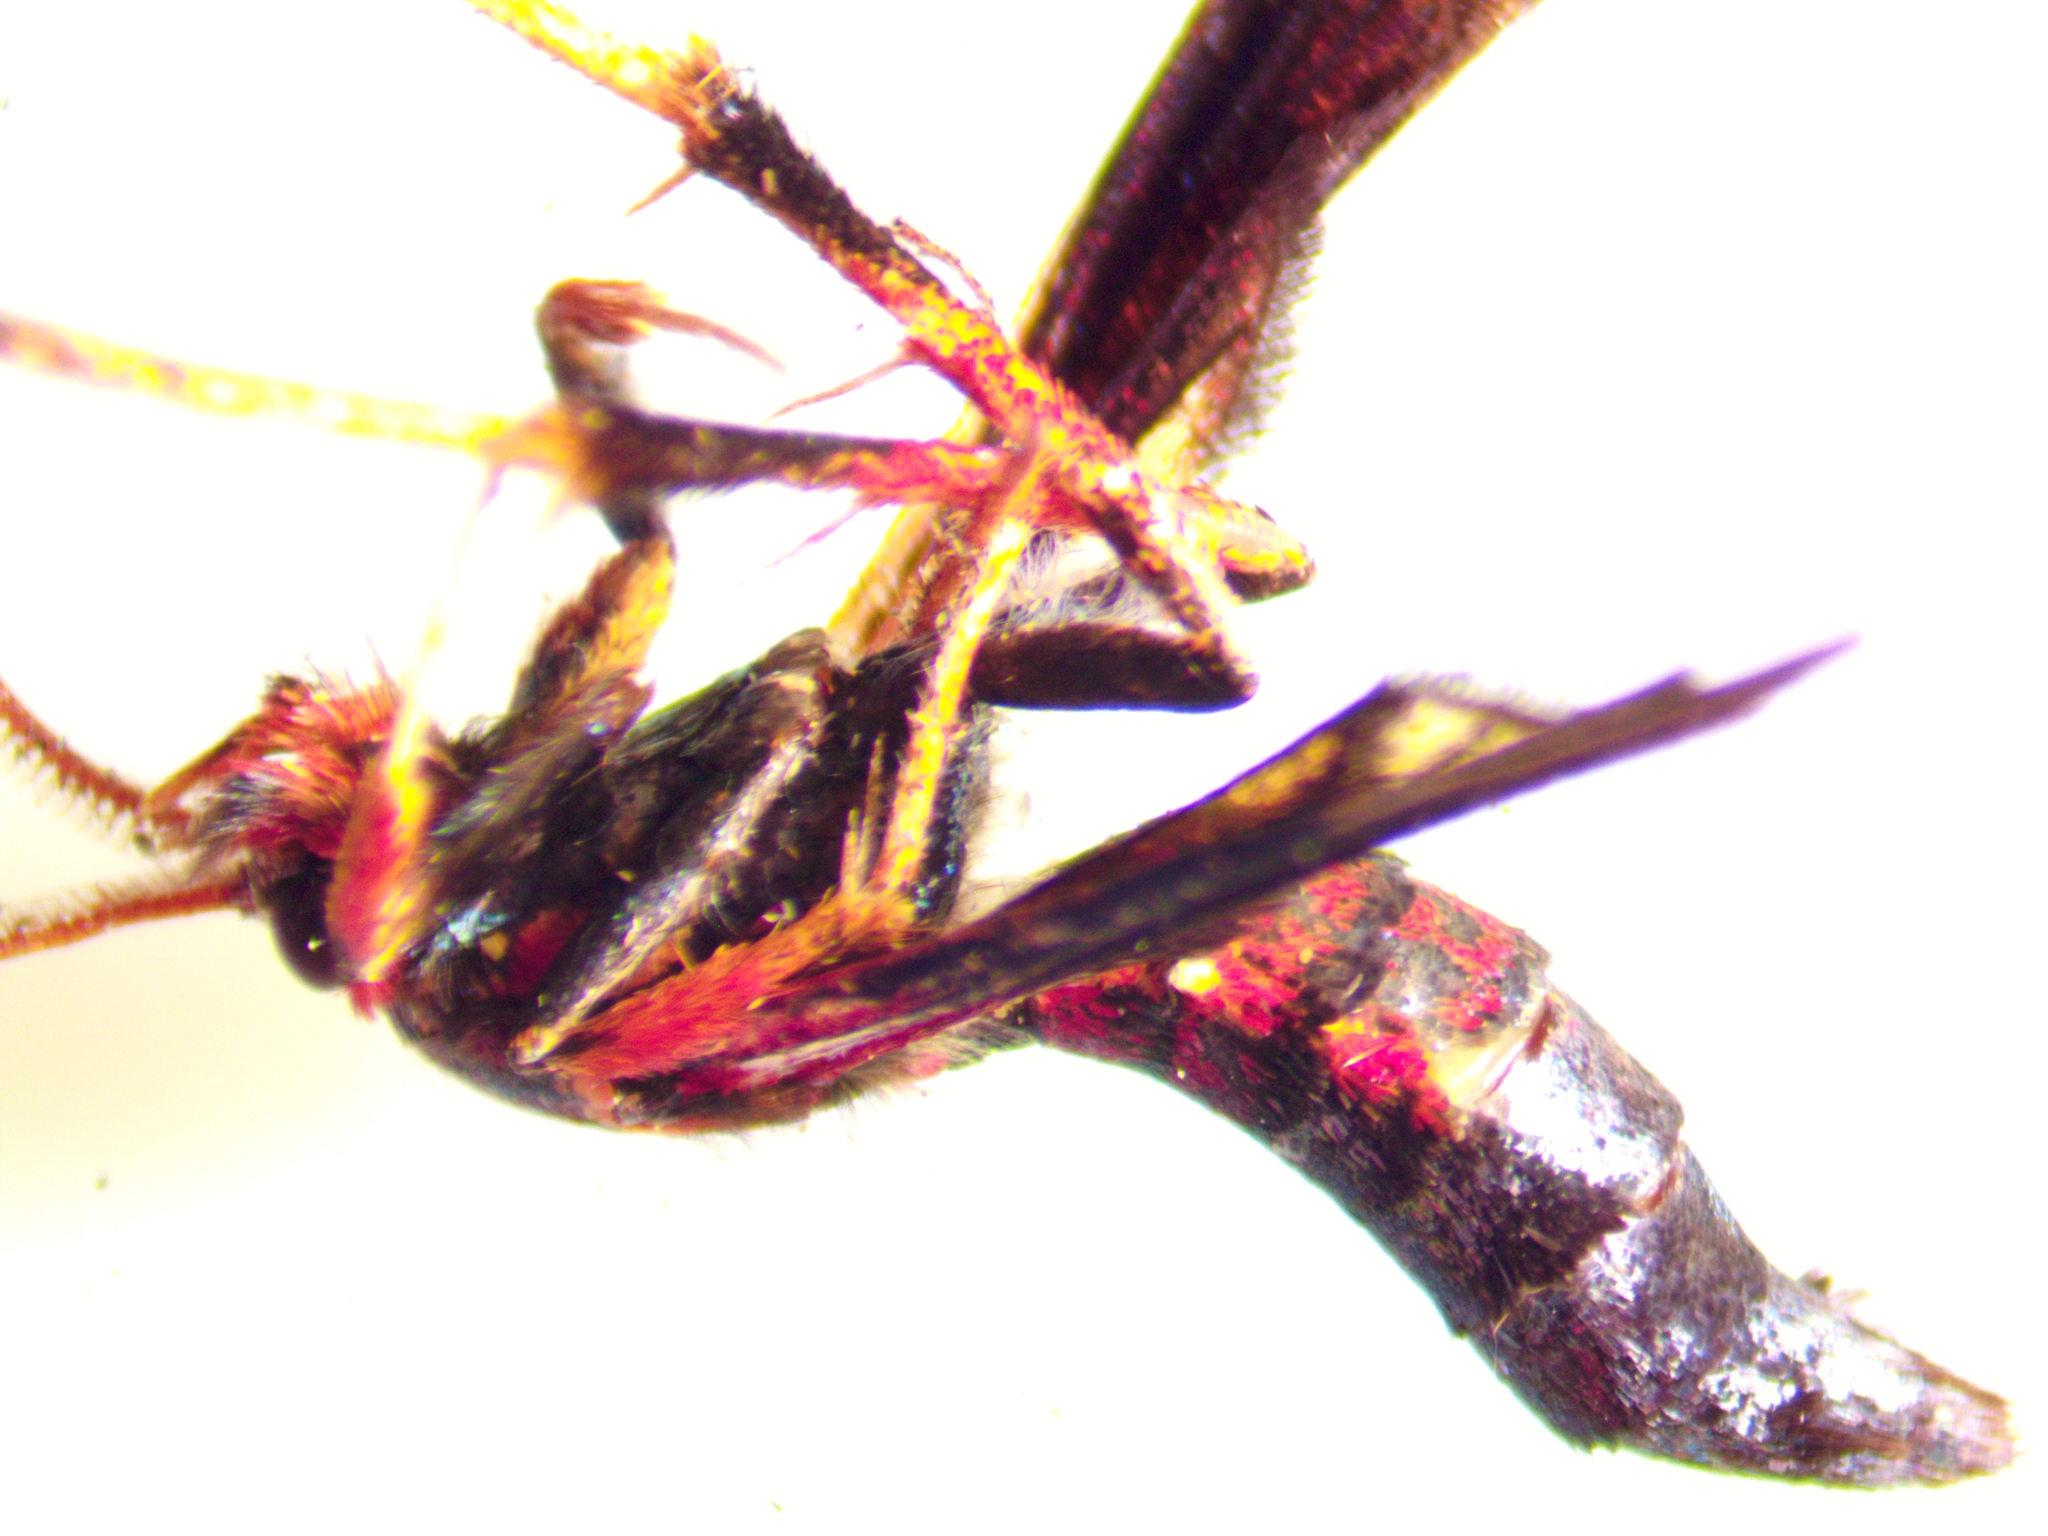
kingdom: Animalia
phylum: Arthropoda
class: Insecta
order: Lepidoptera
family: Sesiidae
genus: Podosesia
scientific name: Podosesia syringae
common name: Lilac borer moth
